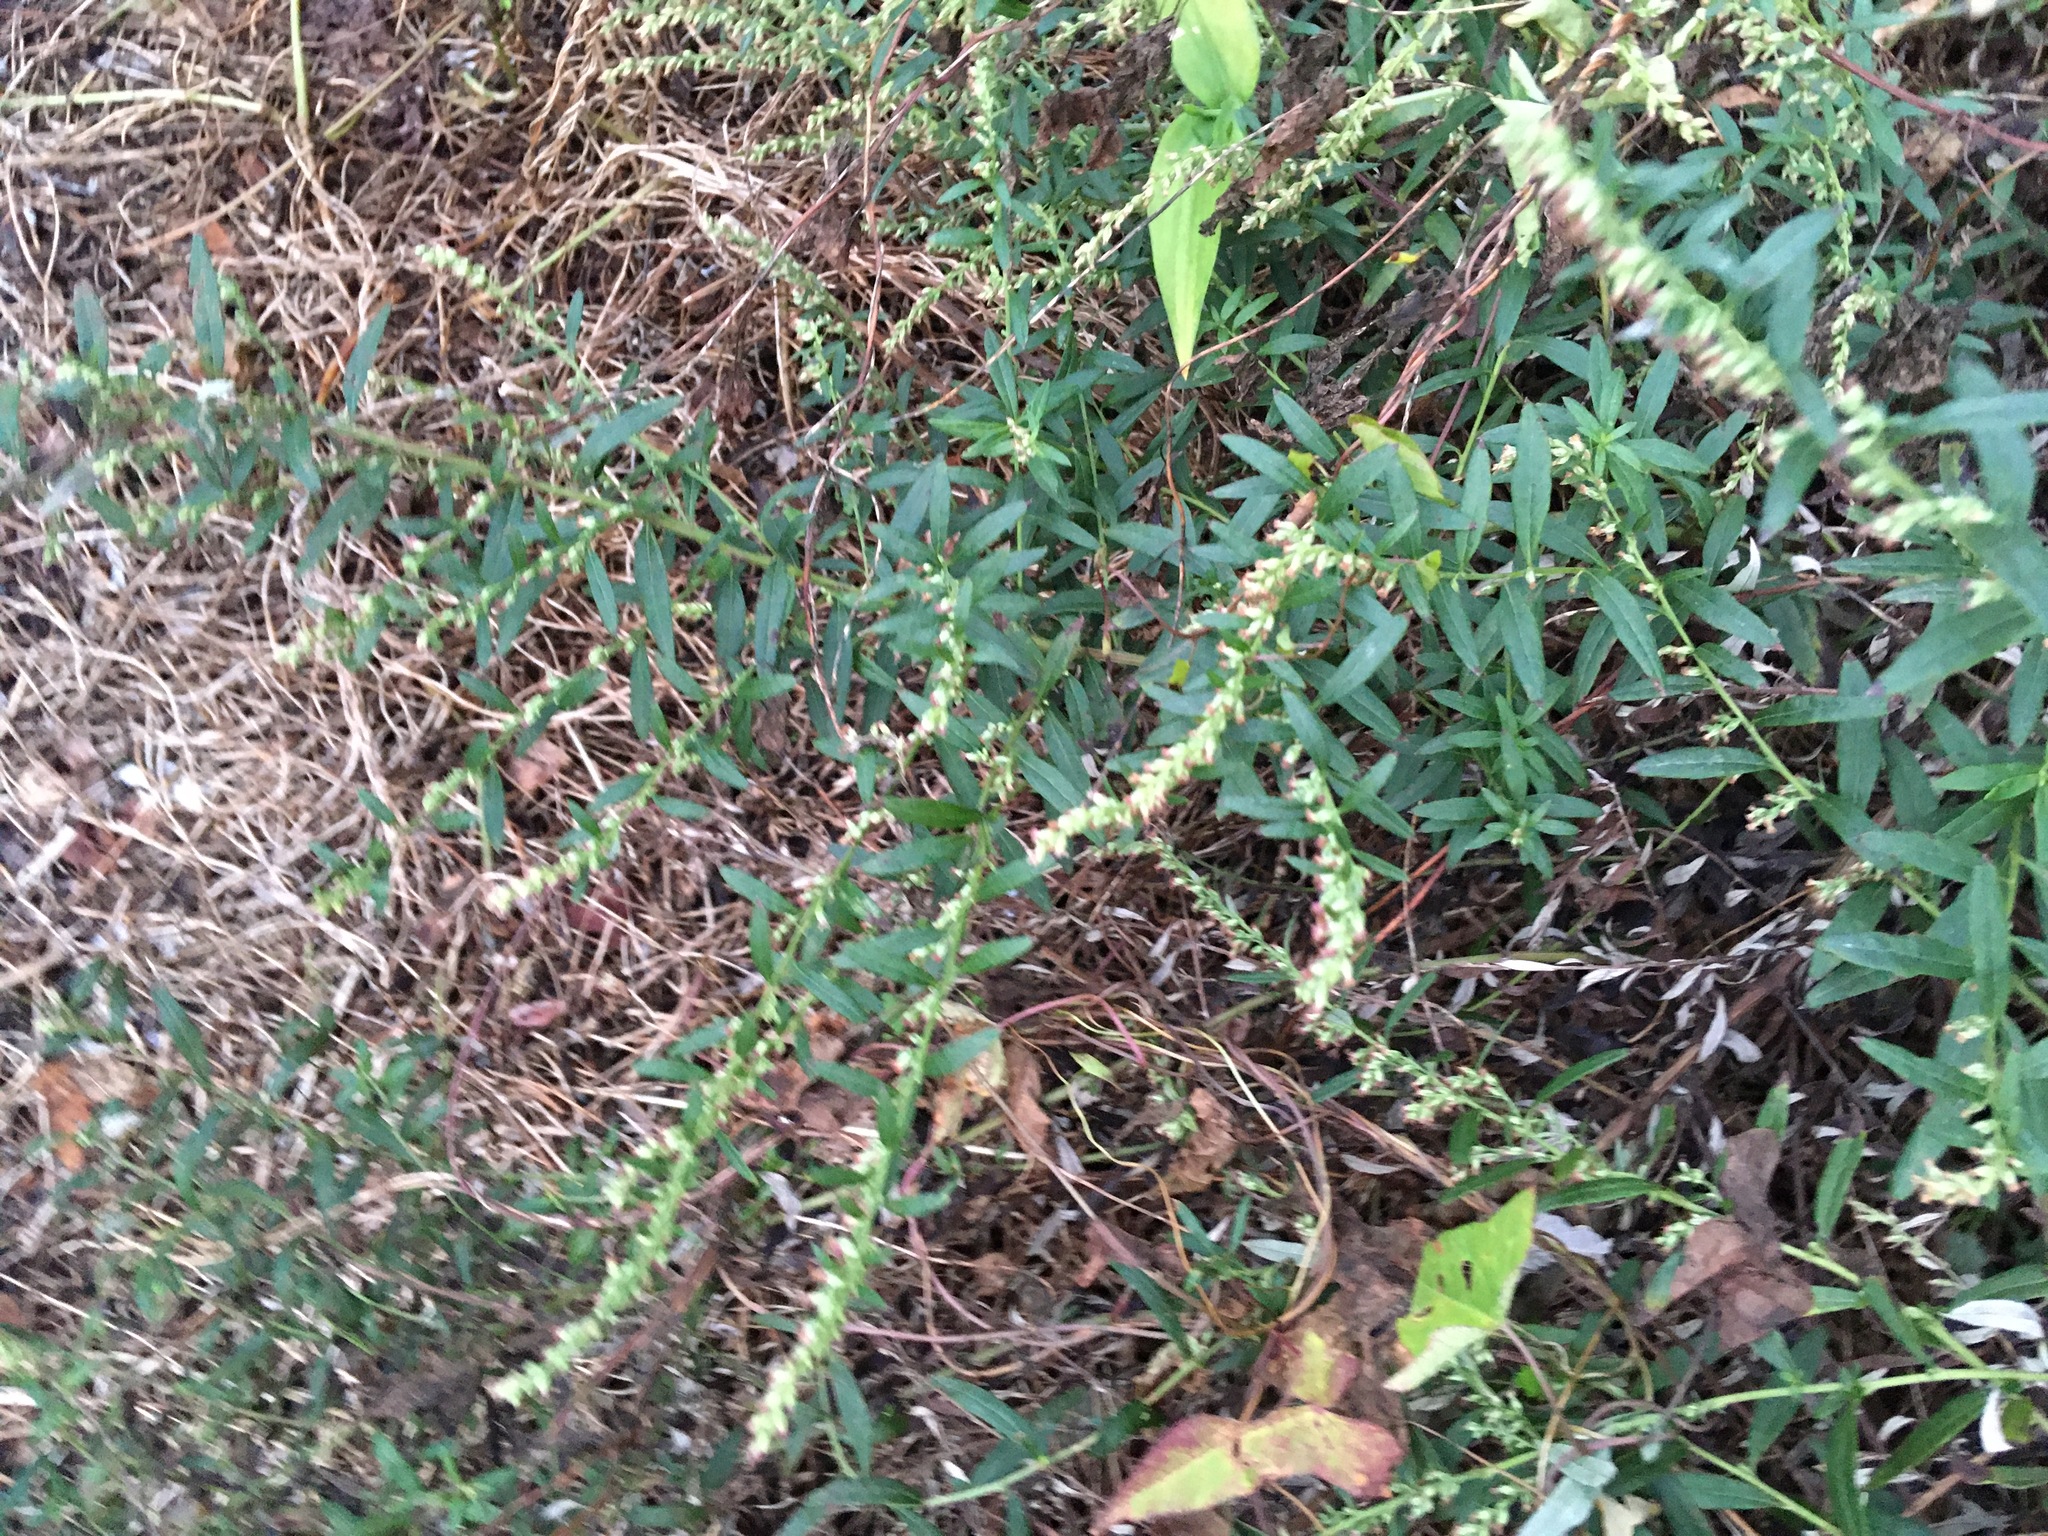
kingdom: Plantae
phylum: Tracheophyta
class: Magnoliopsida
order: Asterales
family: Asteraceae
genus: Artemisia
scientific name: Artemisia vulgaris
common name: Mugwort
